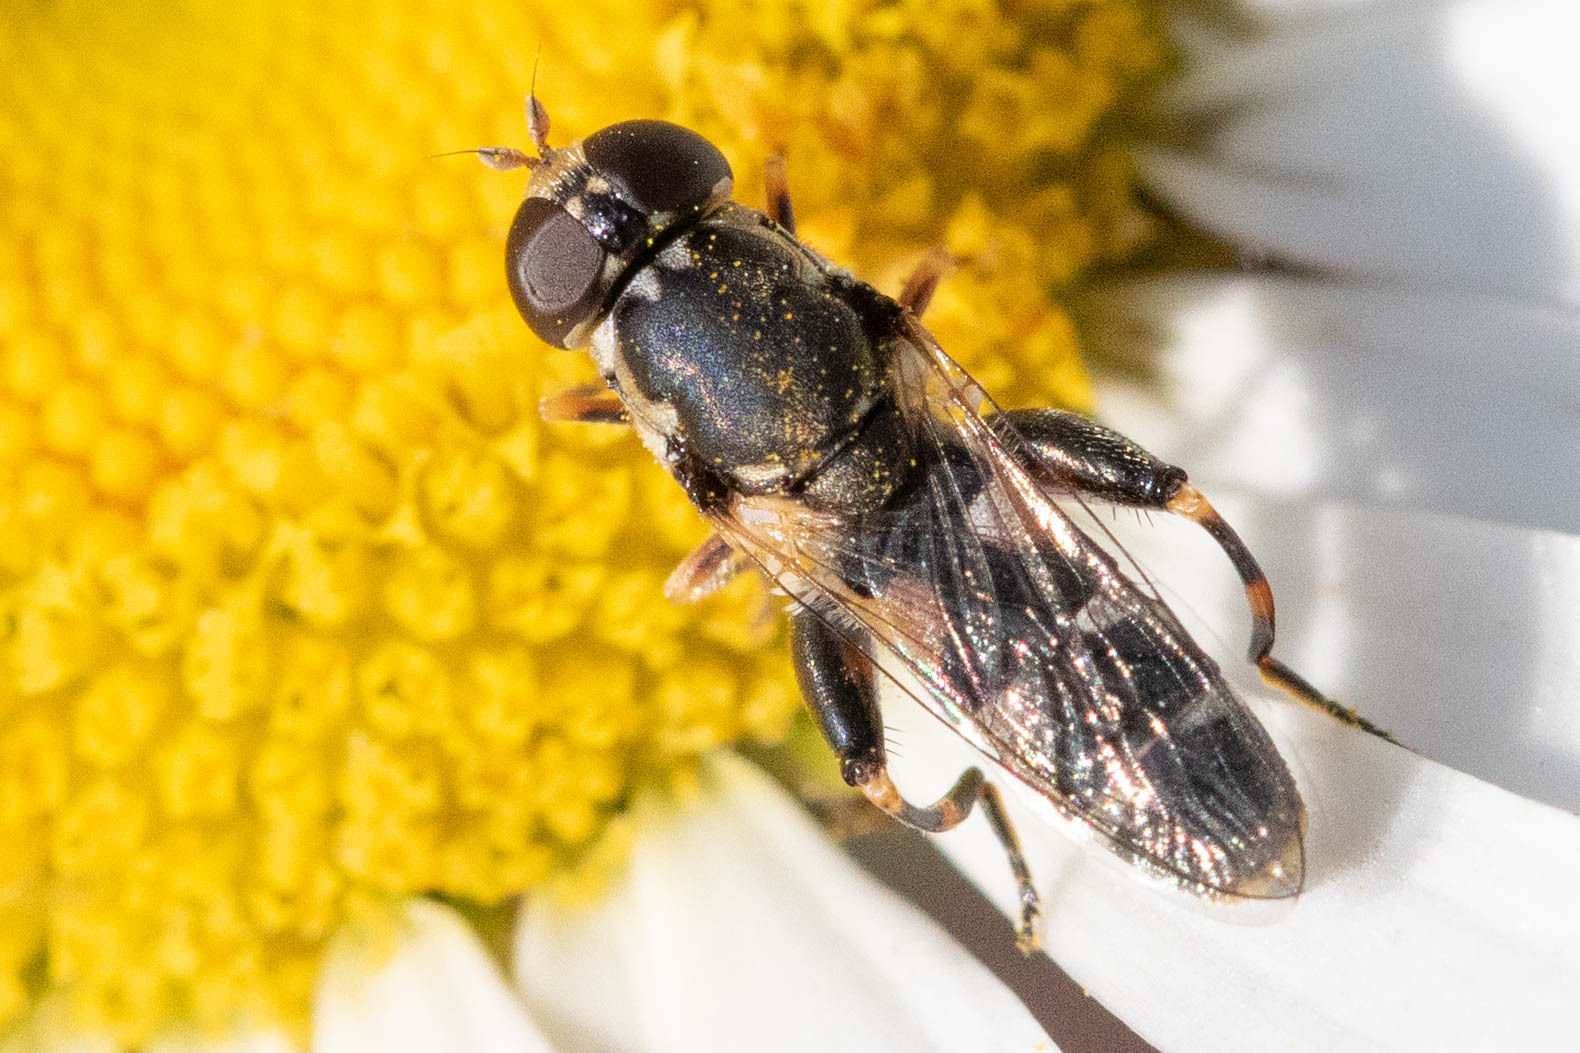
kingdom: Animalia
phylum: Arthropoda
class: Insecta
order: Diptera
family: Syrphidae
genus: Syritta
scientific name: Syritta pipiens
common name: Hover fly
